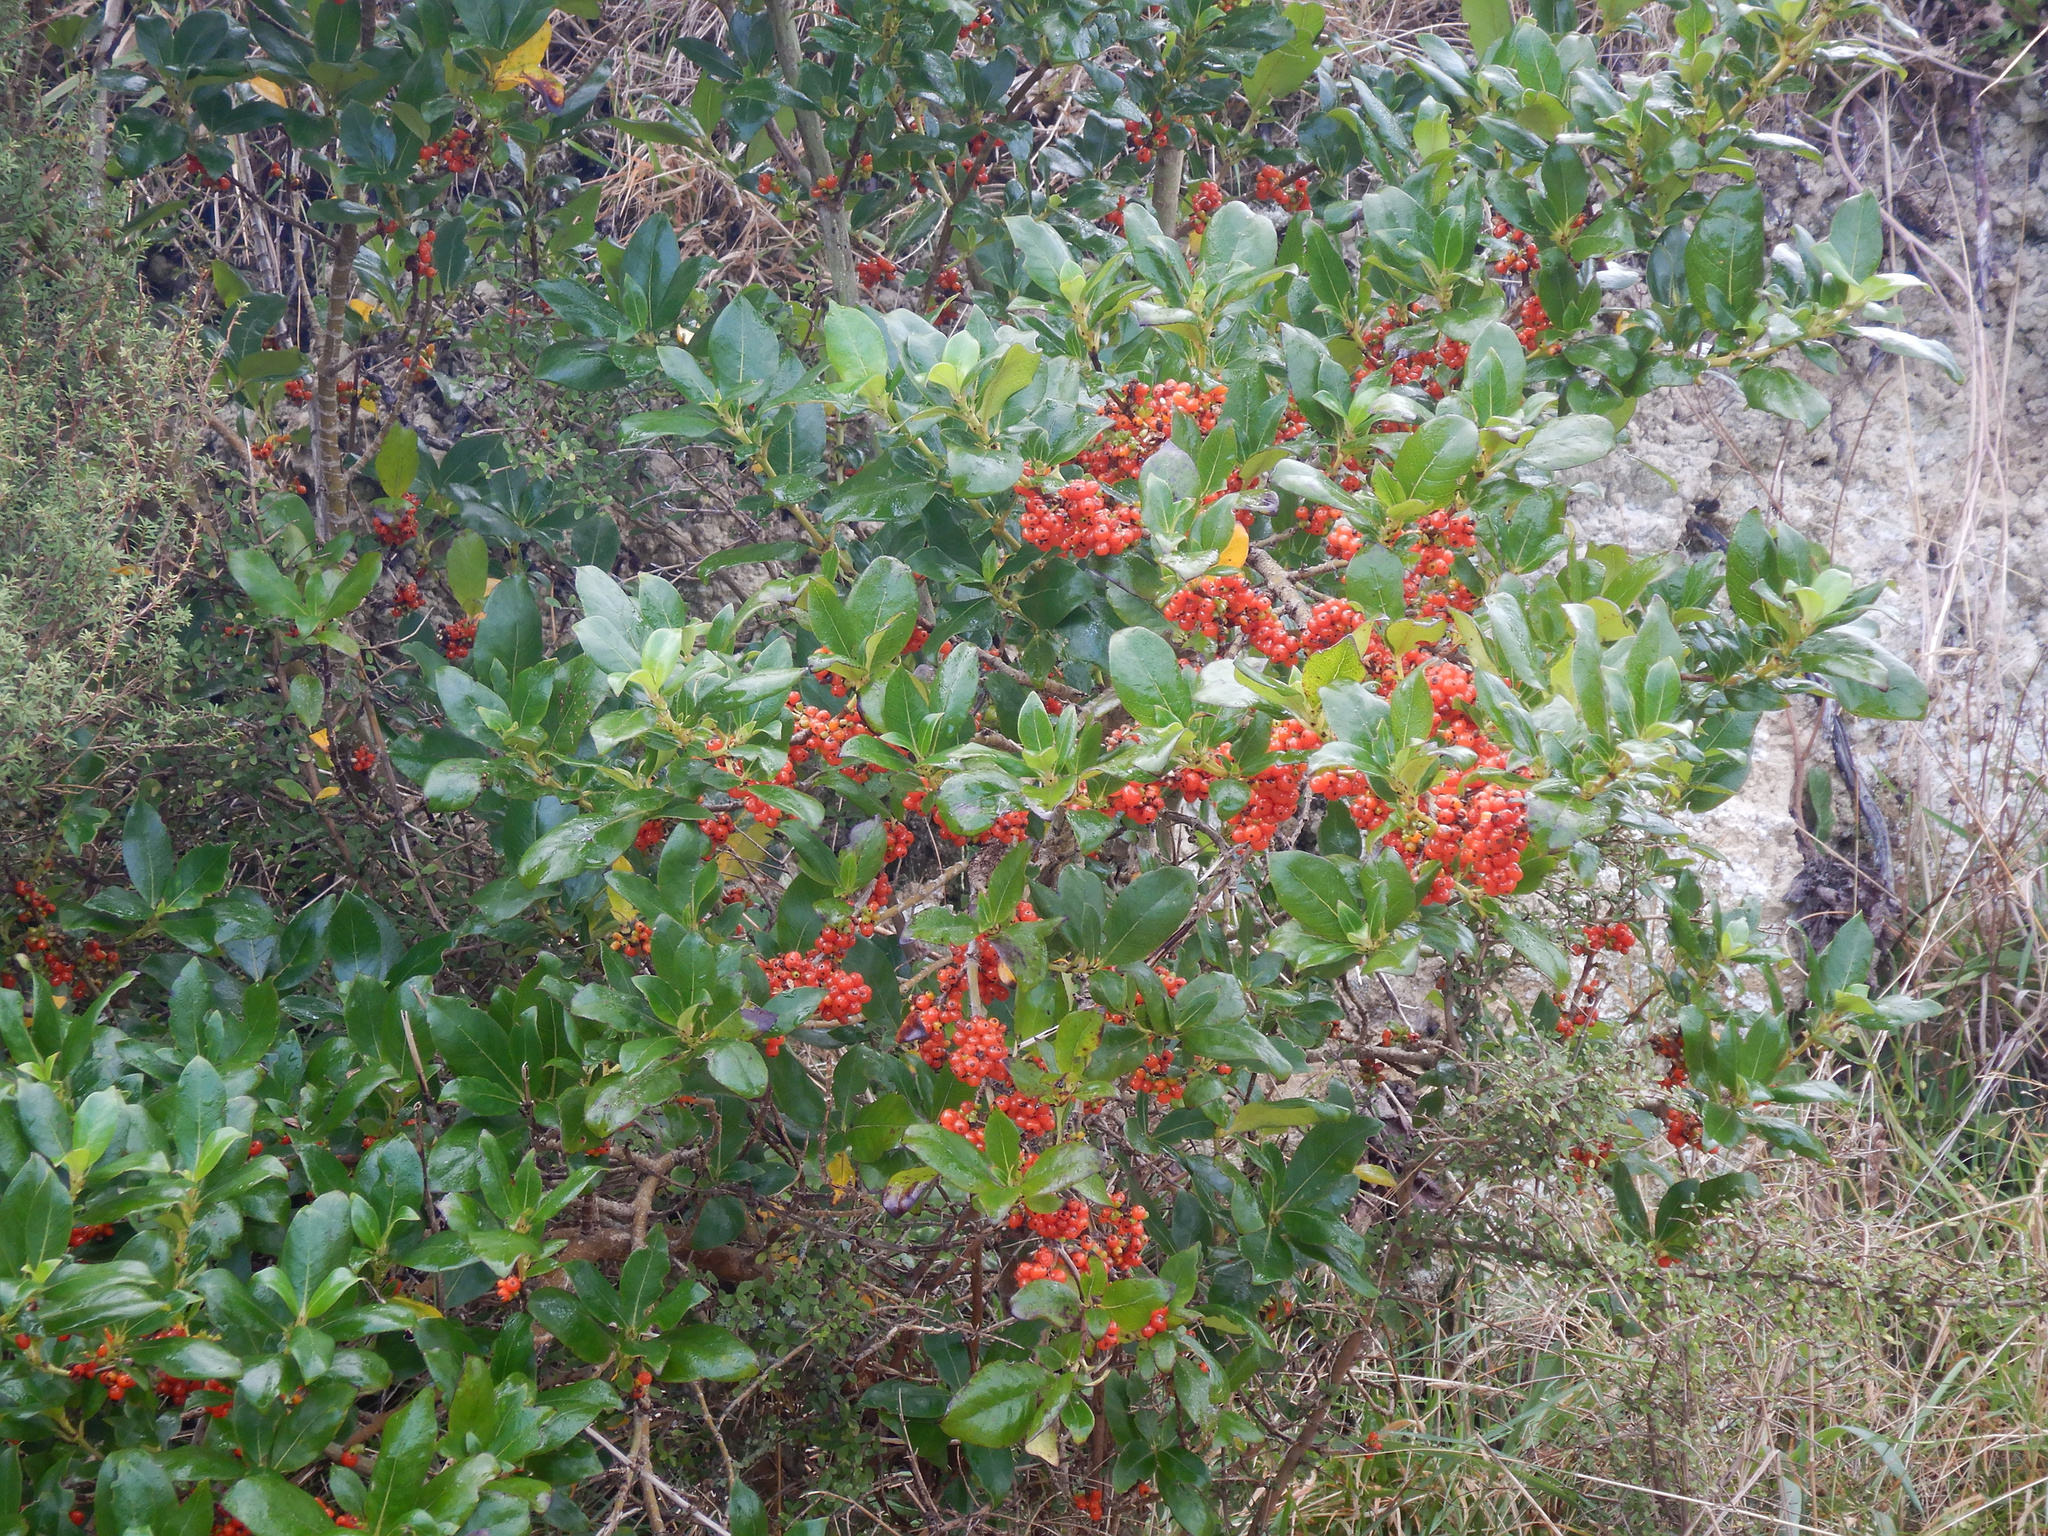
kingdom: Plantae
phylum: Tracheophyta
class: Magnoliopsida
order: Gentianales
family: Rubiaceae
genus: Coprosma
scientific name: Coprosma robusta
